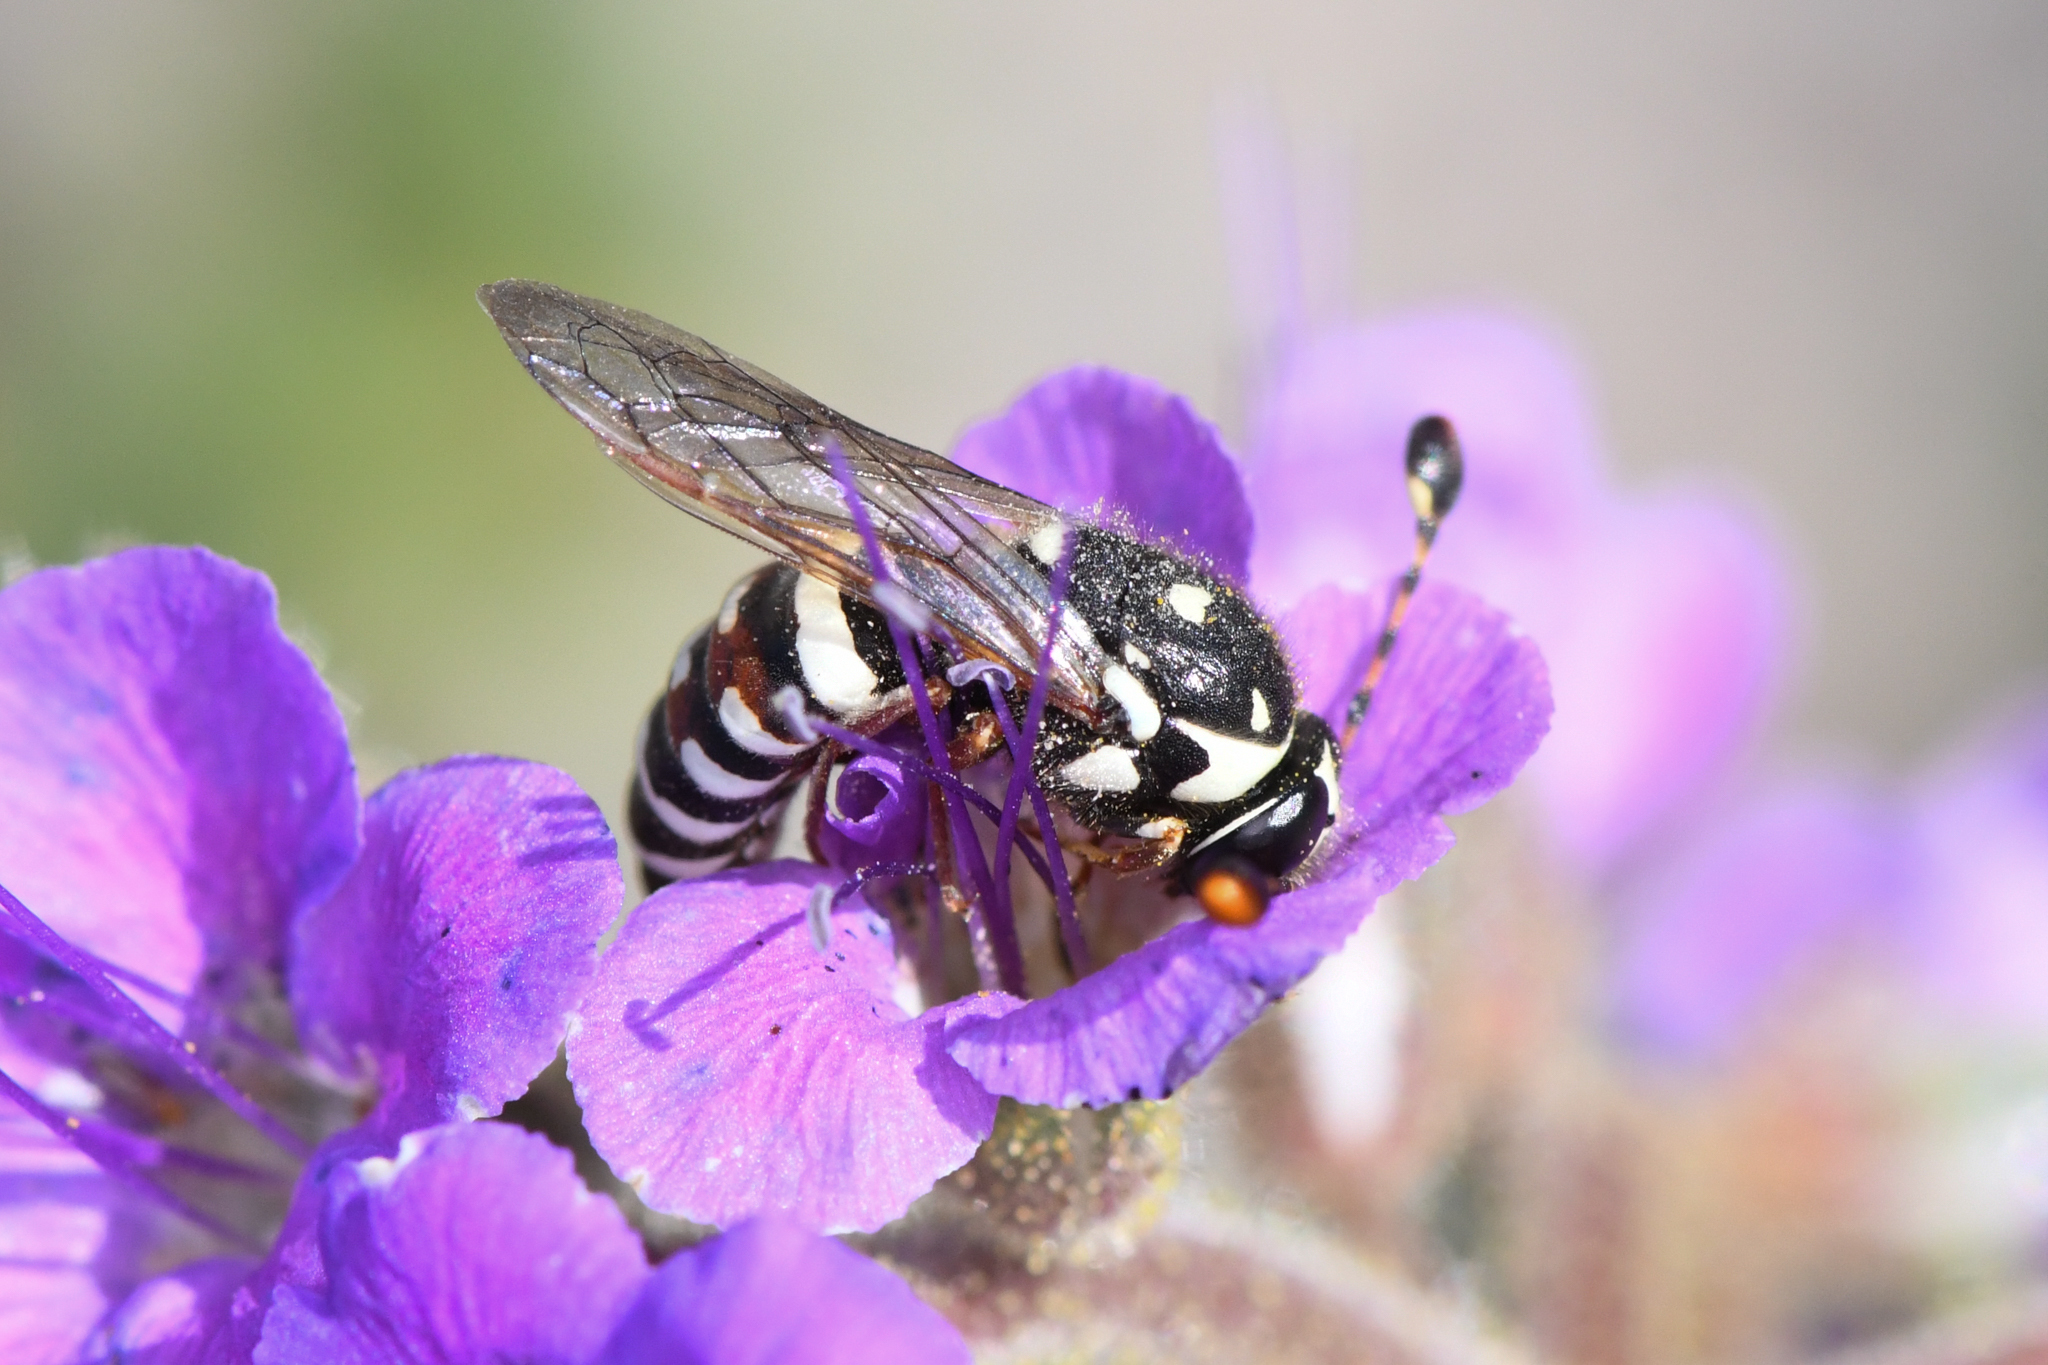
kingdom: Animalia
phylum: Arthropoda
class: Insecta
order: Hymenoptera
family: Masaridae
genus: Pseudomasaris
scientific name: Pseudomasaris basirufus
